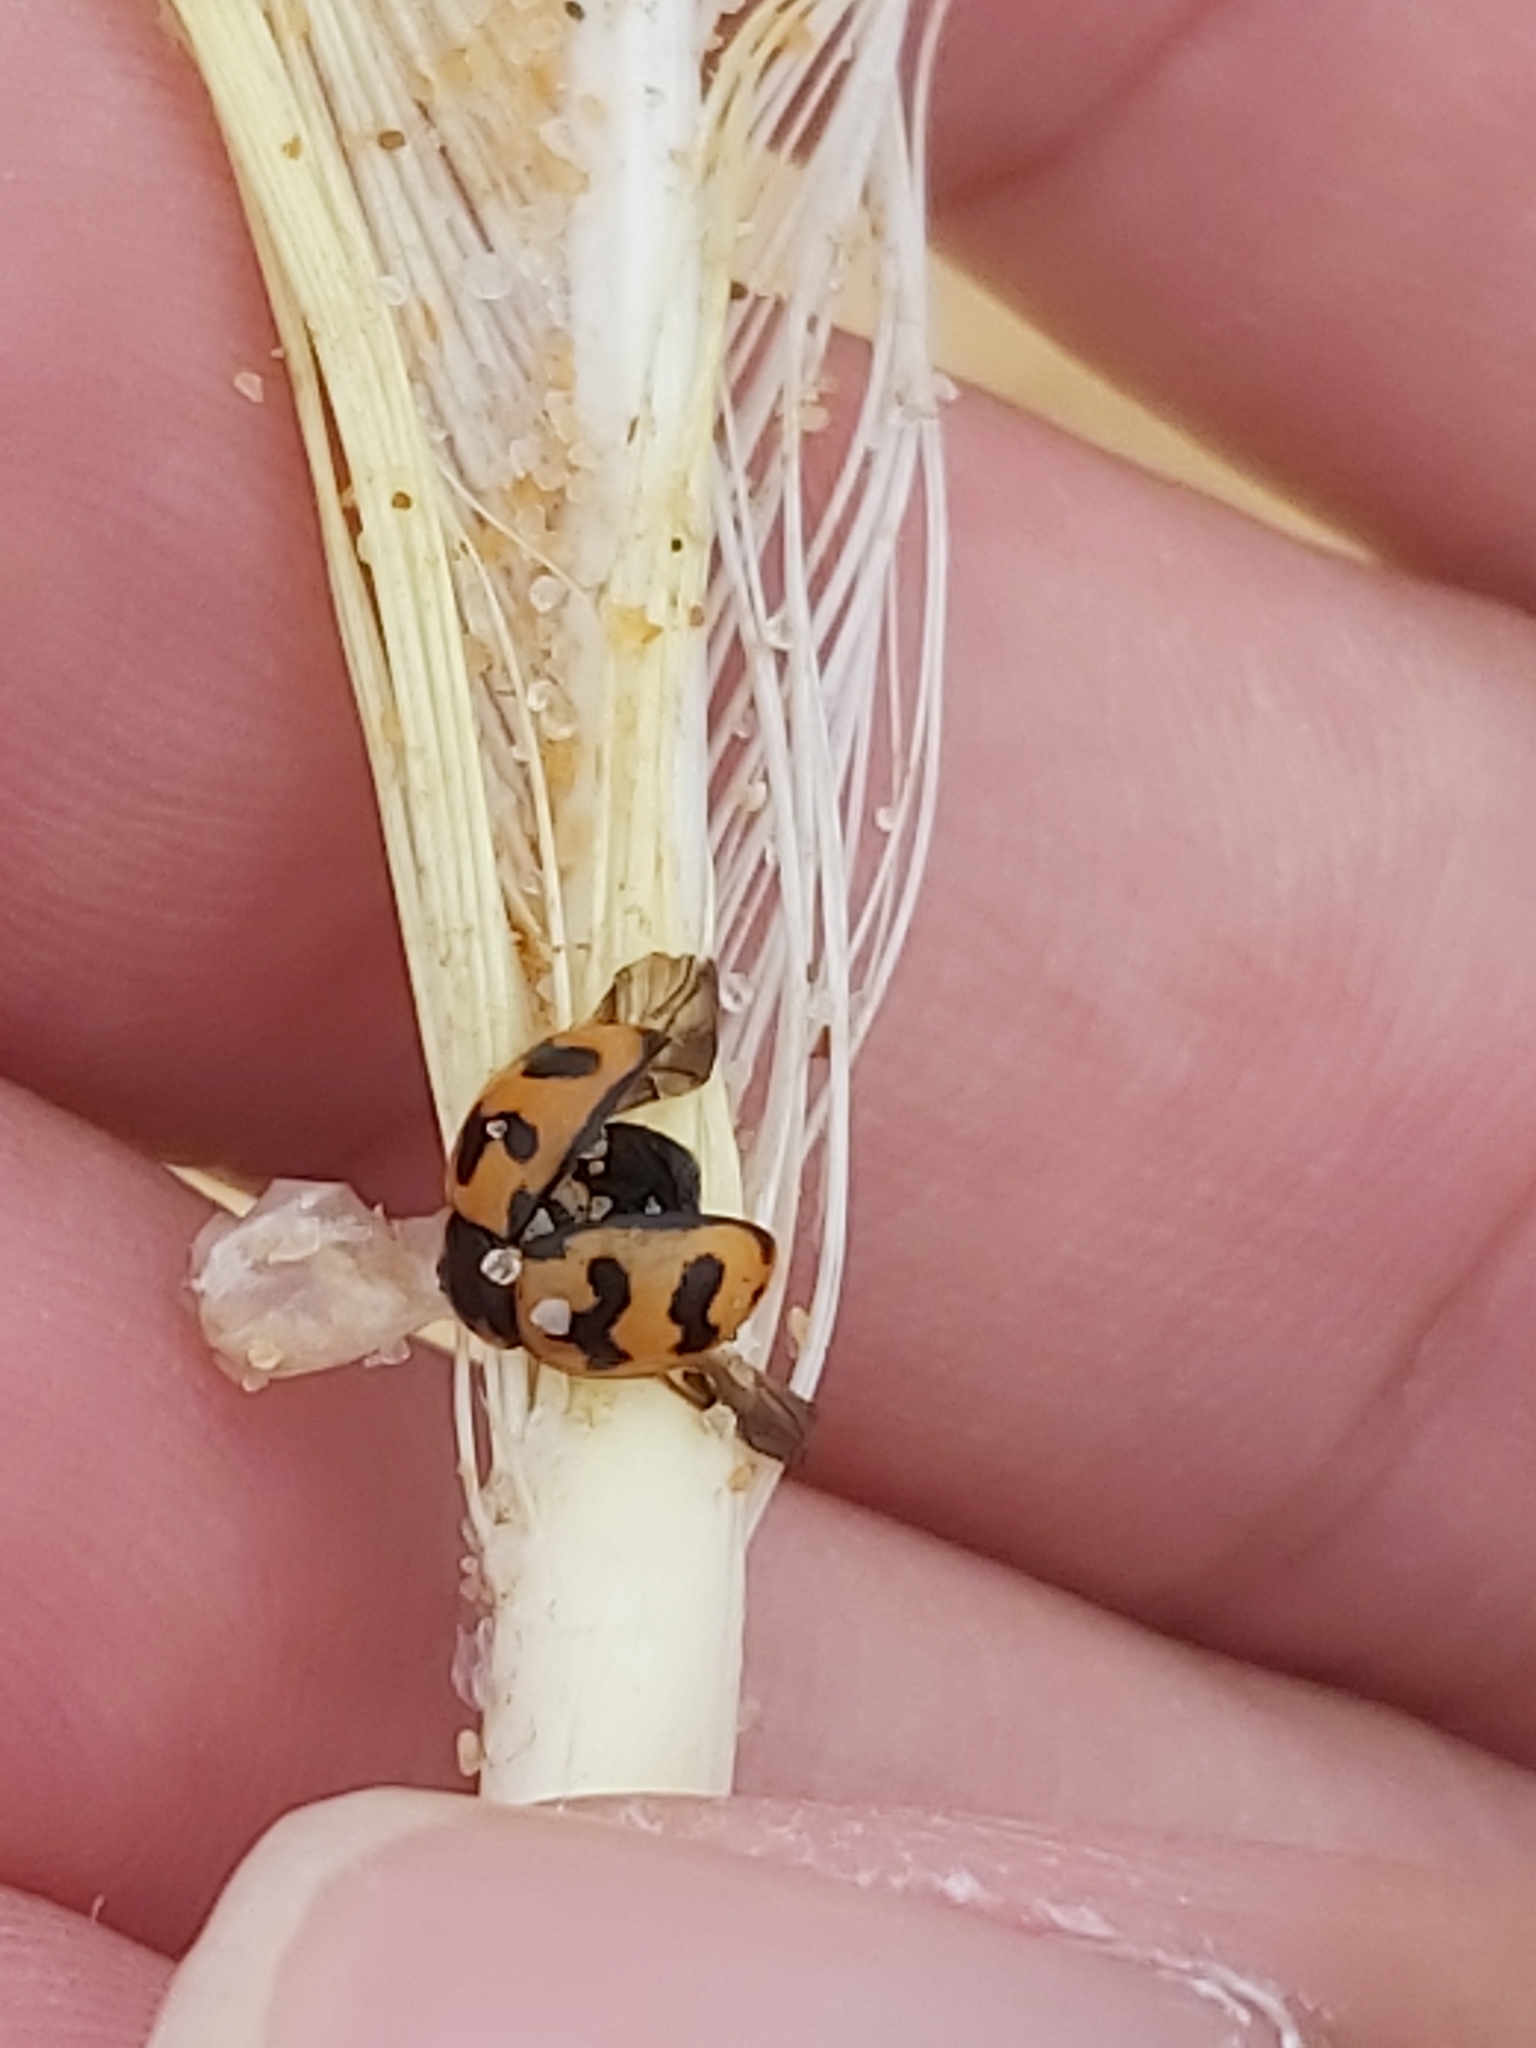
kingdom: Animalia
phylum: Arthropoda
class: Insecta
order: Coleoptera
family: Coccinellidae
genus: Coccinella
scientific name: Coccinella transversalis
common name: Transverse lady beetle
